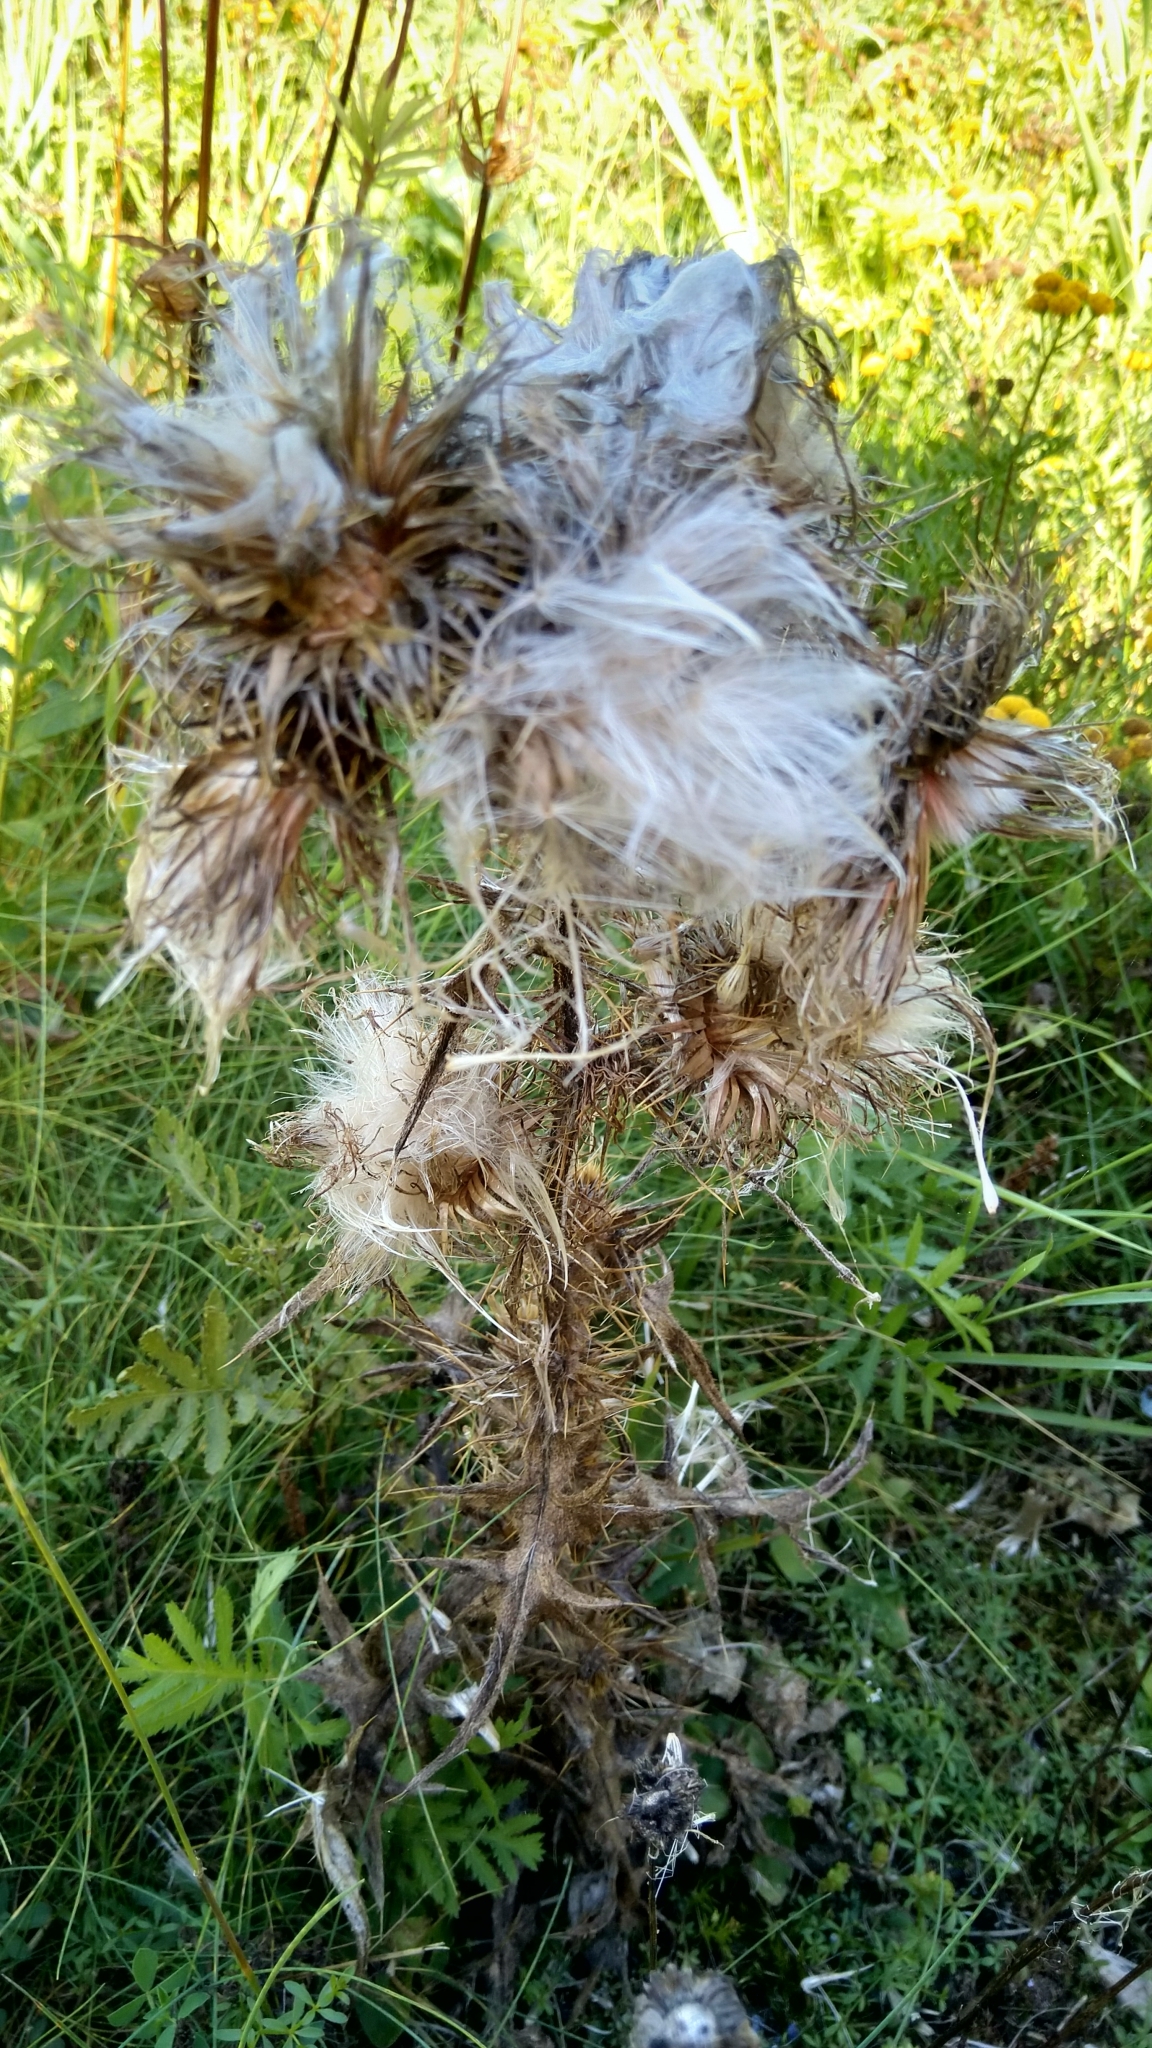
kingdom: Plantae
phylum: Tracheophyta
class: Magnoliopsida
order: Asterales
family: Asteraceae
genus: Cirsium
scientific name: Cirsium vulgare
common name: Bull thistle
